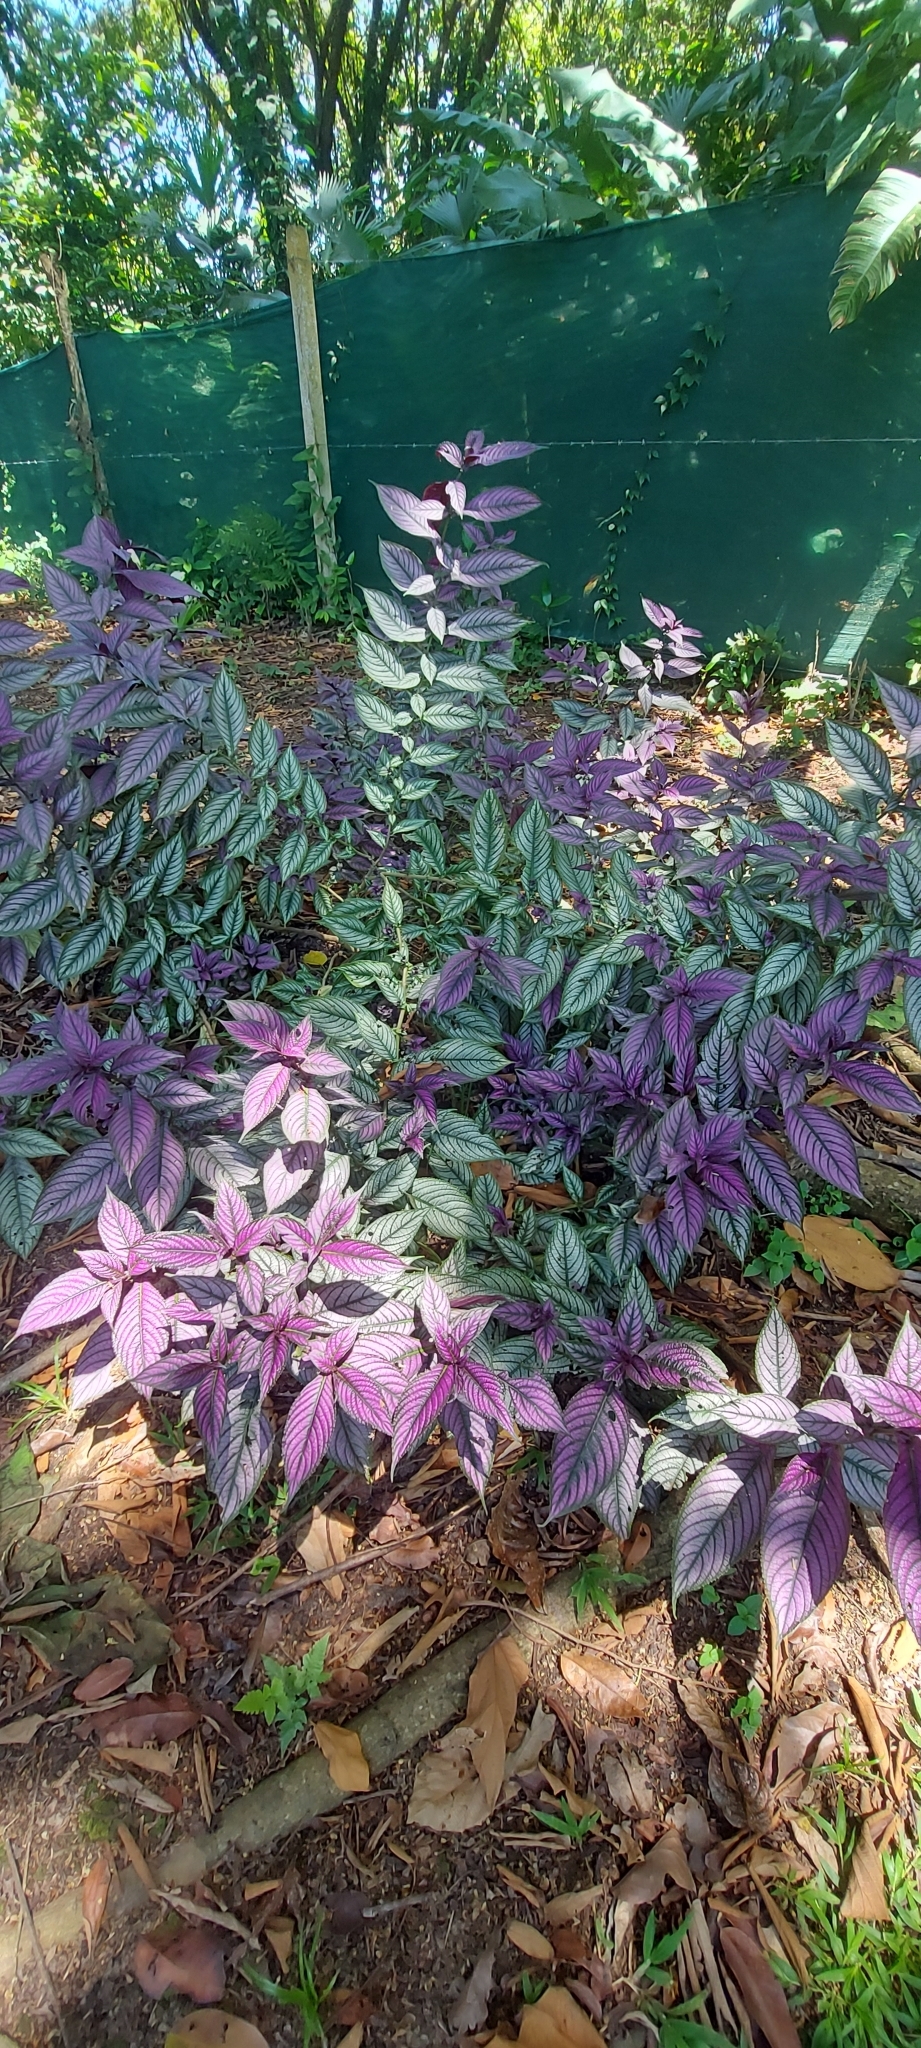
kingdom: Plantae
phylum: Tracheophyta
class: Magnoliopsida
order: Lamiales
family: Acanthaceae
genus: Strobilanthes
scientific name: Strobilanthes auriculata
